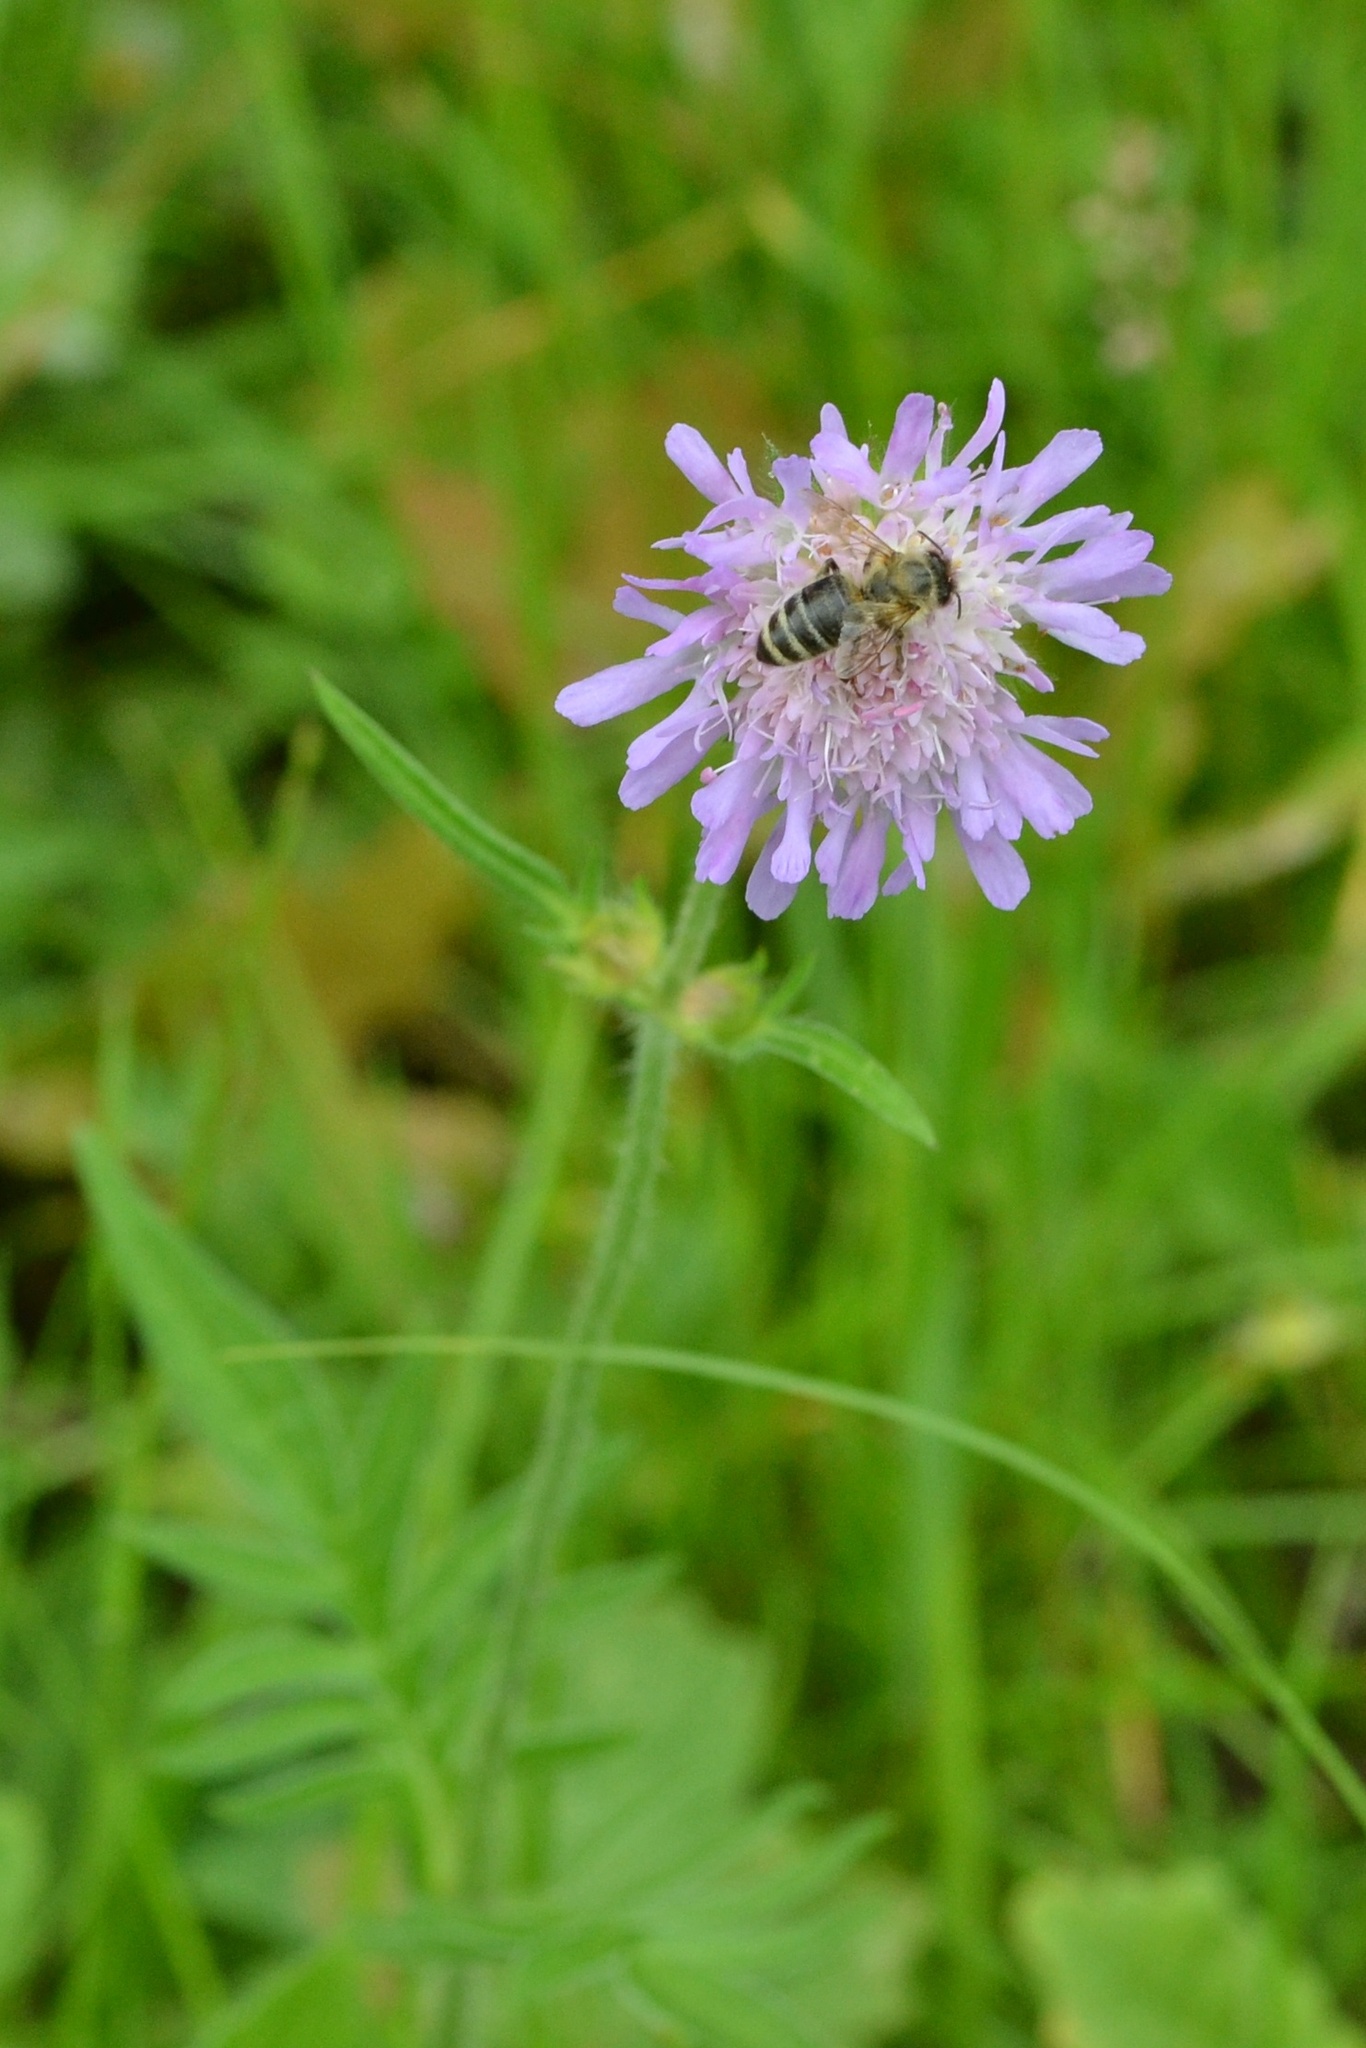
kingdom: Plantae
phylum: Tracheophyta
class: Magnoliopsida
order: Dipsacales
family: Caprifoliaceae
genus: Knautia
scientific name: Knautia arvensis
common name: Field scabiosa
